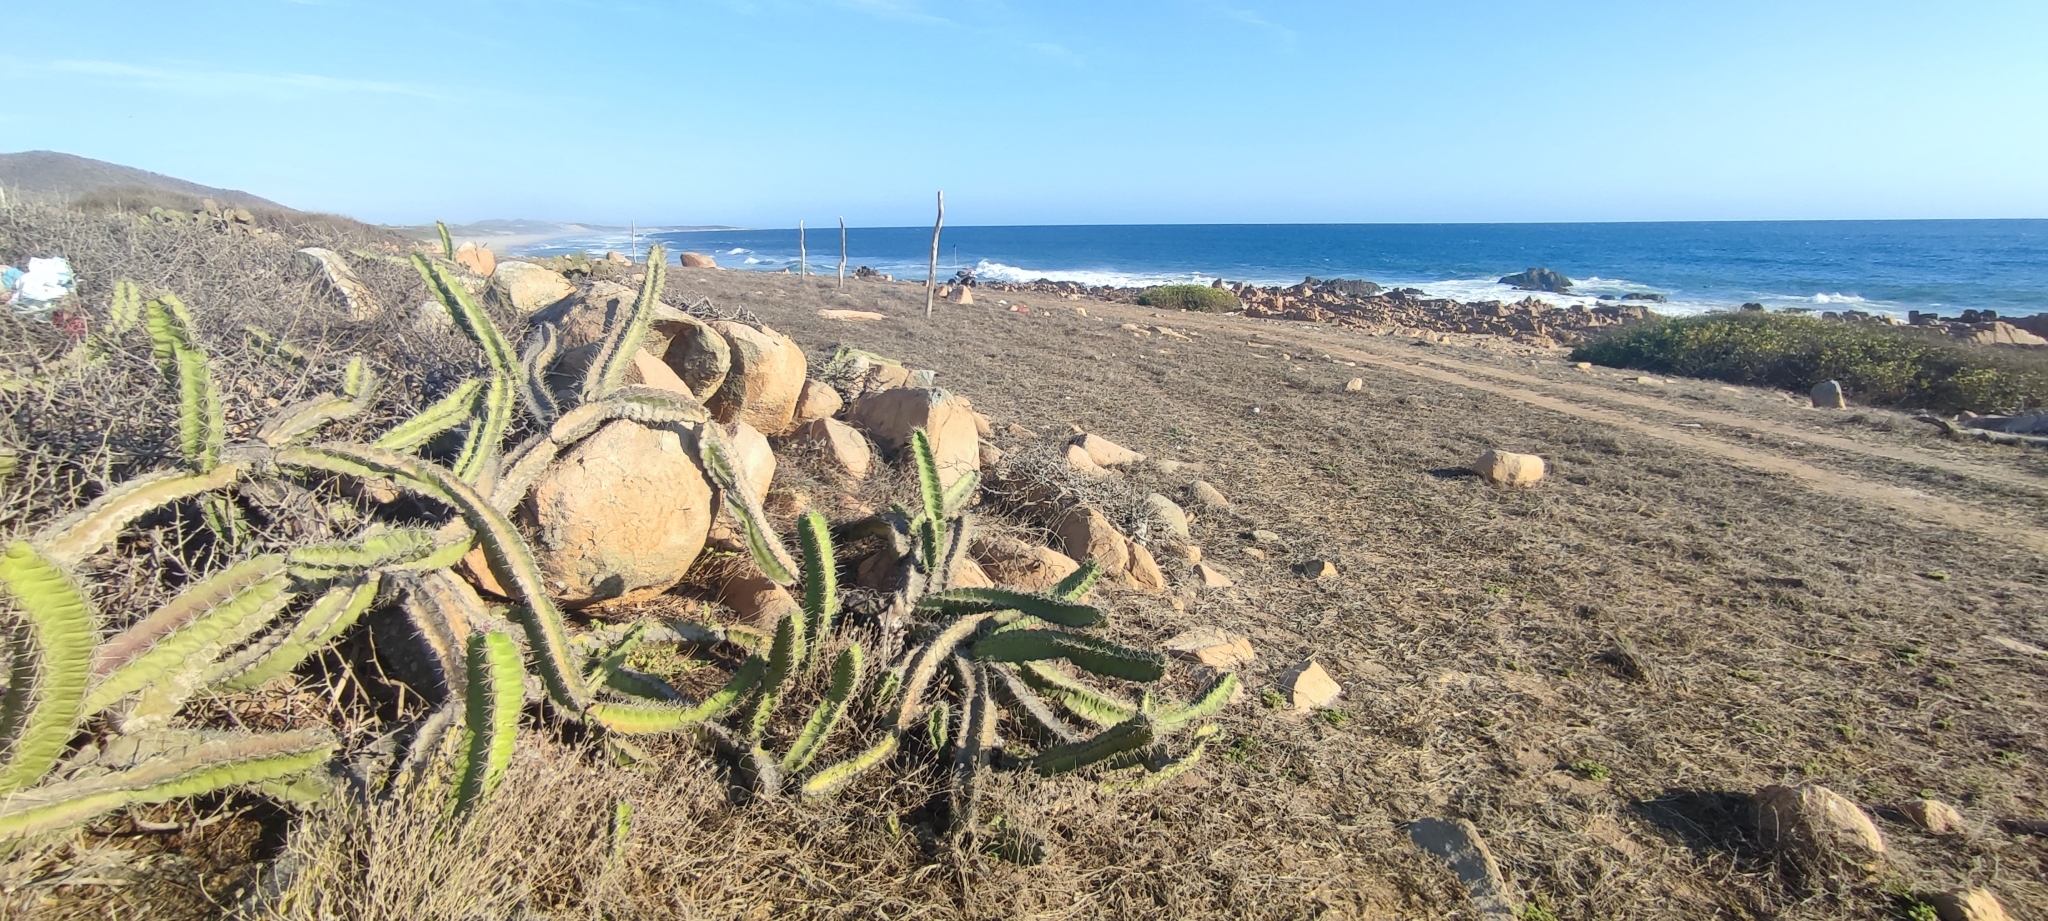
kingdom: Plantae
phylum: Tracheophyta
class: Magnoliopsida
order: Caryophyllales
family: Cactaceae
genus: Stenocereus
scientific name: Stenocereus standleyi
